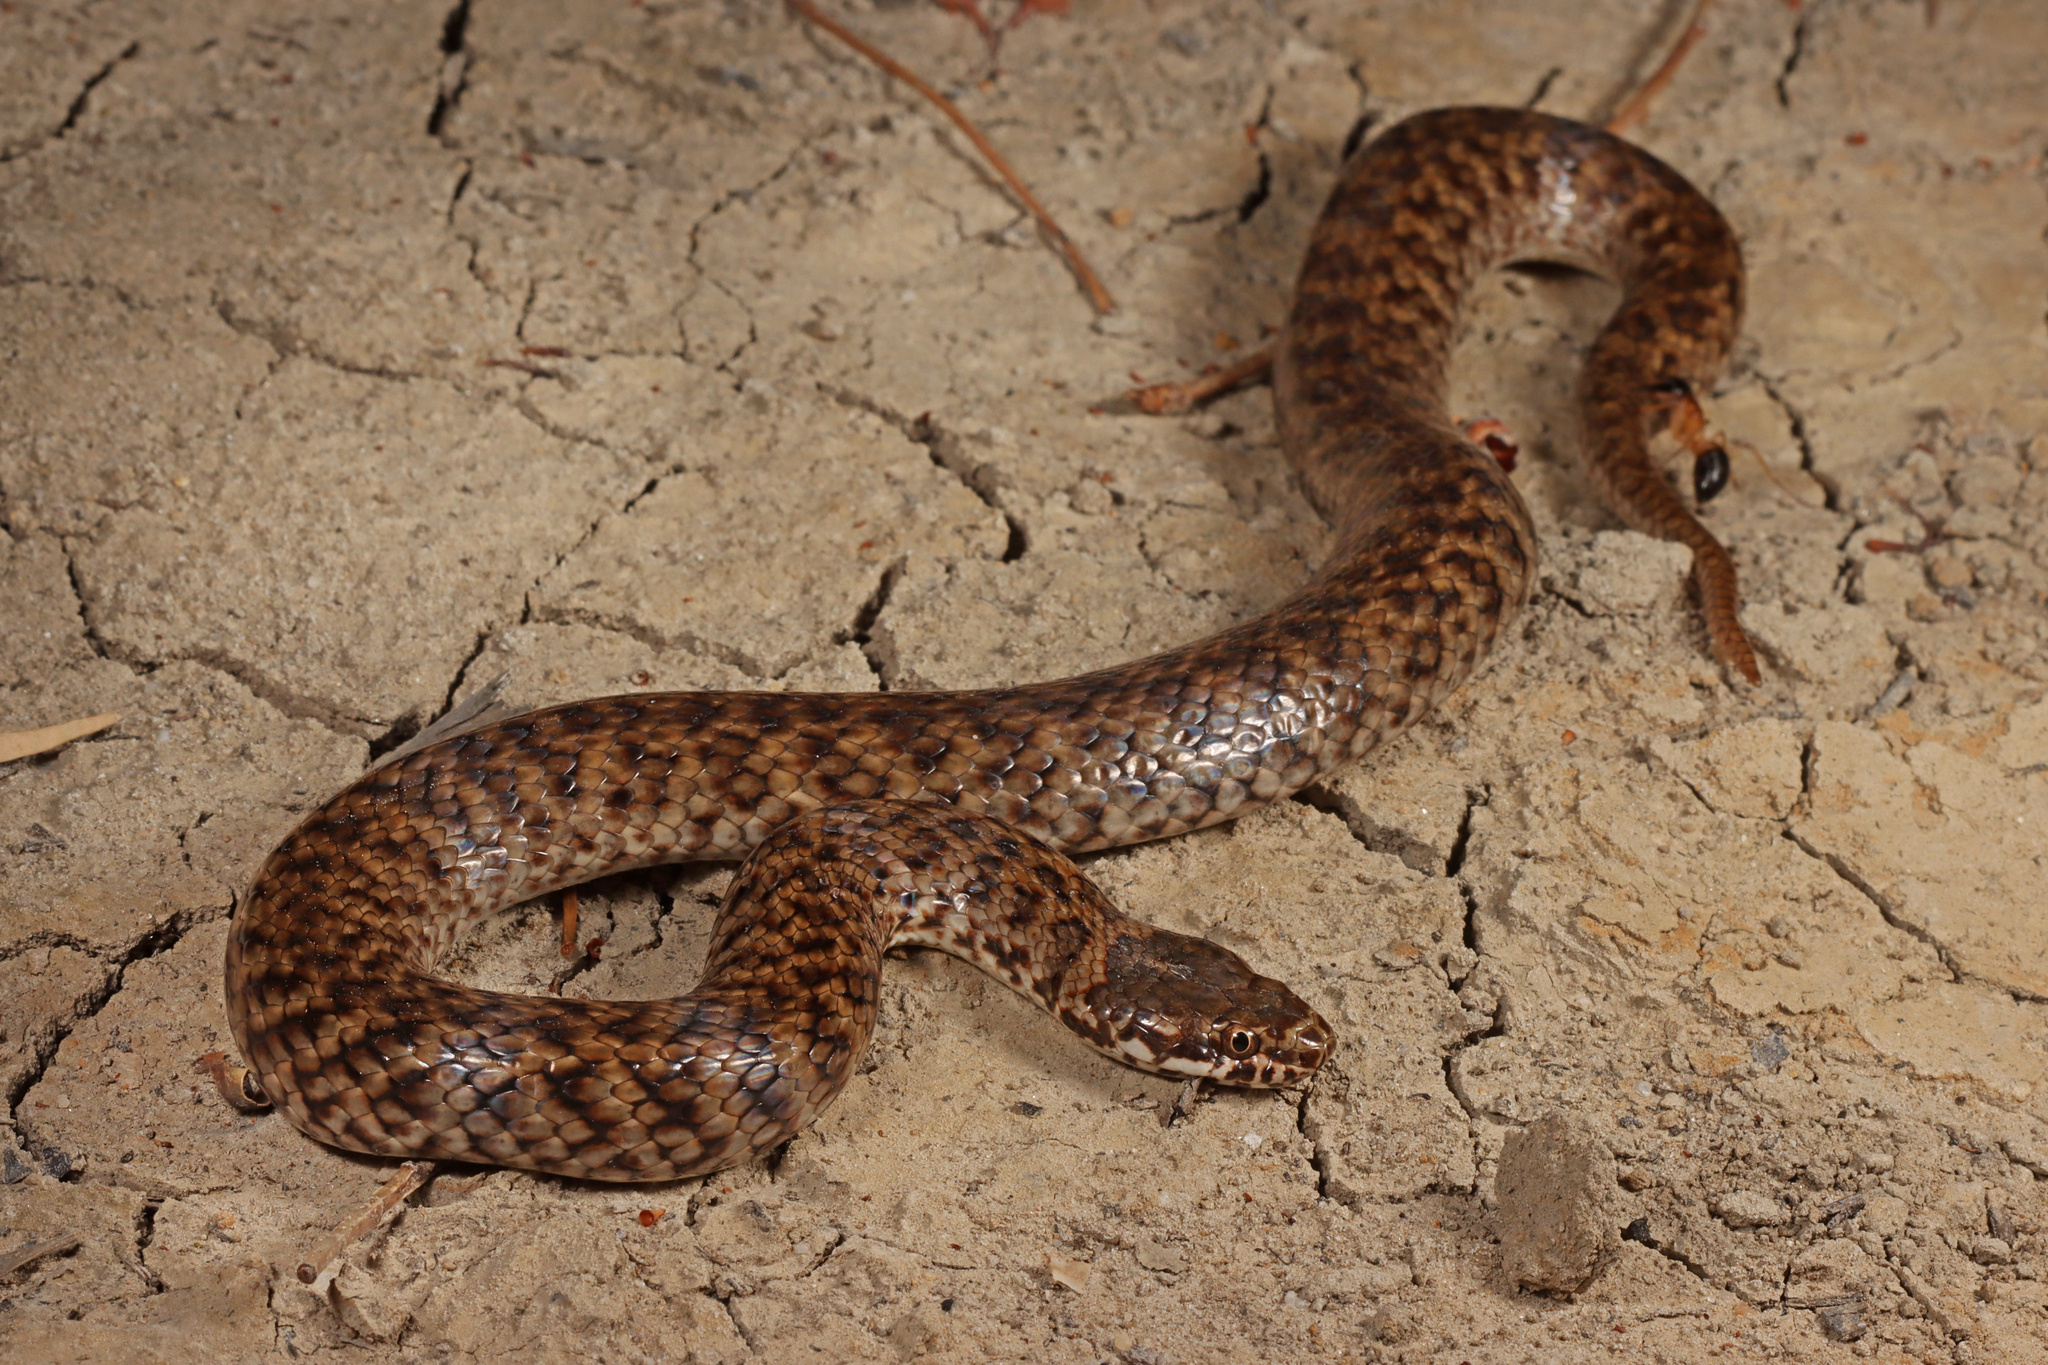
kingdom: Animalia
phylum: Chordata
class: Squamata
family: Elapidae
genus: Denisonia
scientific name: Denisonia devisi
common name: De vis banded snake
